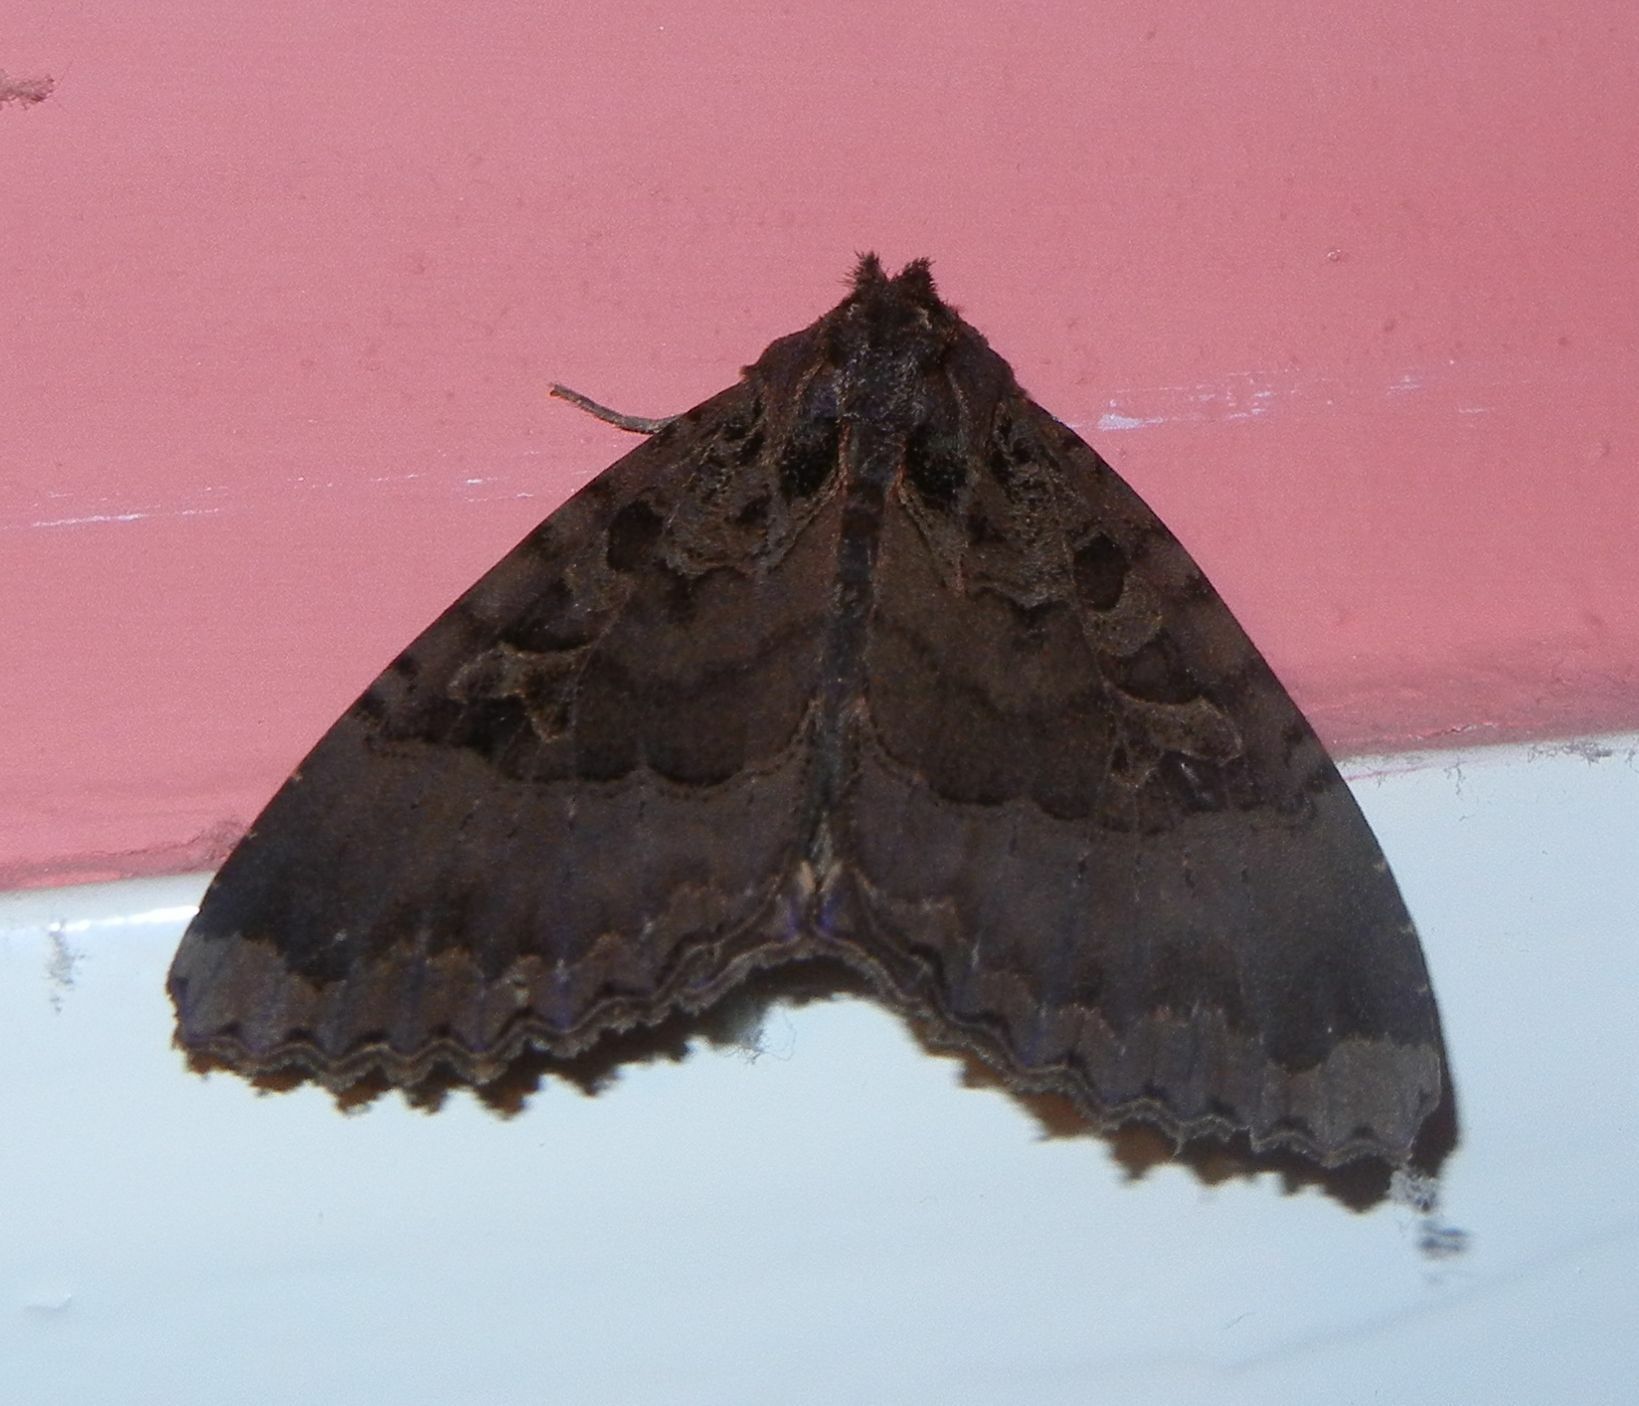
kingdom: Animalia
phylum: Arthropoda
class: Insecta
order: Lepidoptera
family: Noctuidae
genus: Mormo
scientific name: Mormo maura
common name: Old lady
